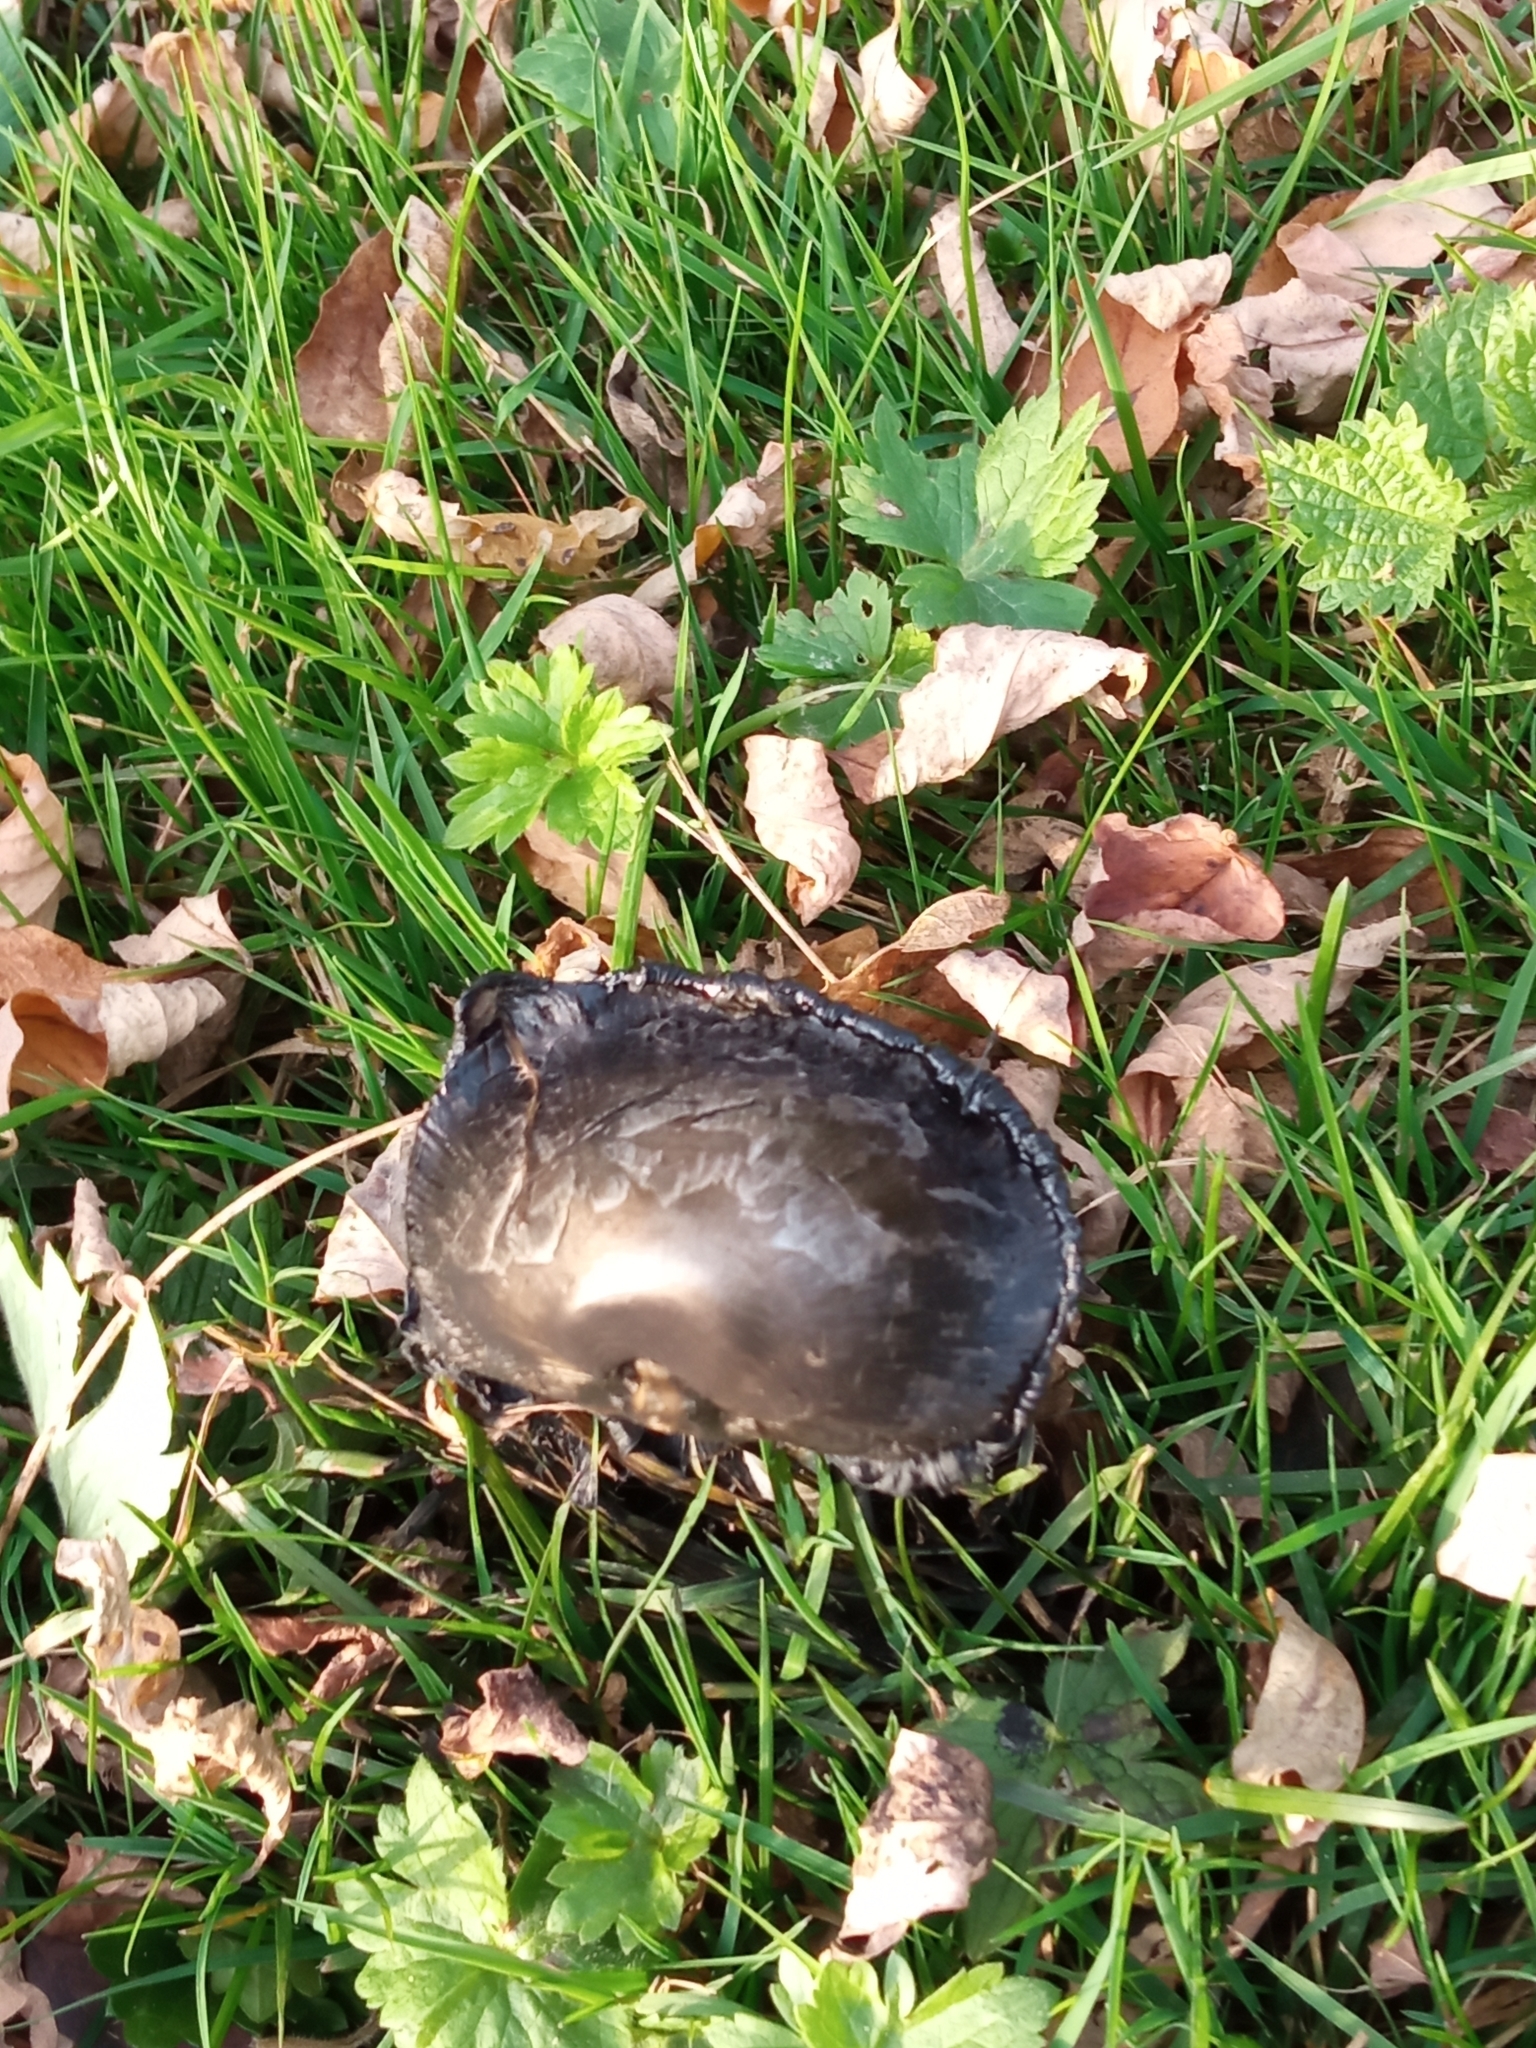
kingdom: Fungi
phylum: Basidiomycota
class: Agaricomycetes
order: Agaricales
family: Agaricaceae
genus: Coprinus
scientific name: Coprinus comatus
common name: Lawyer's wig
